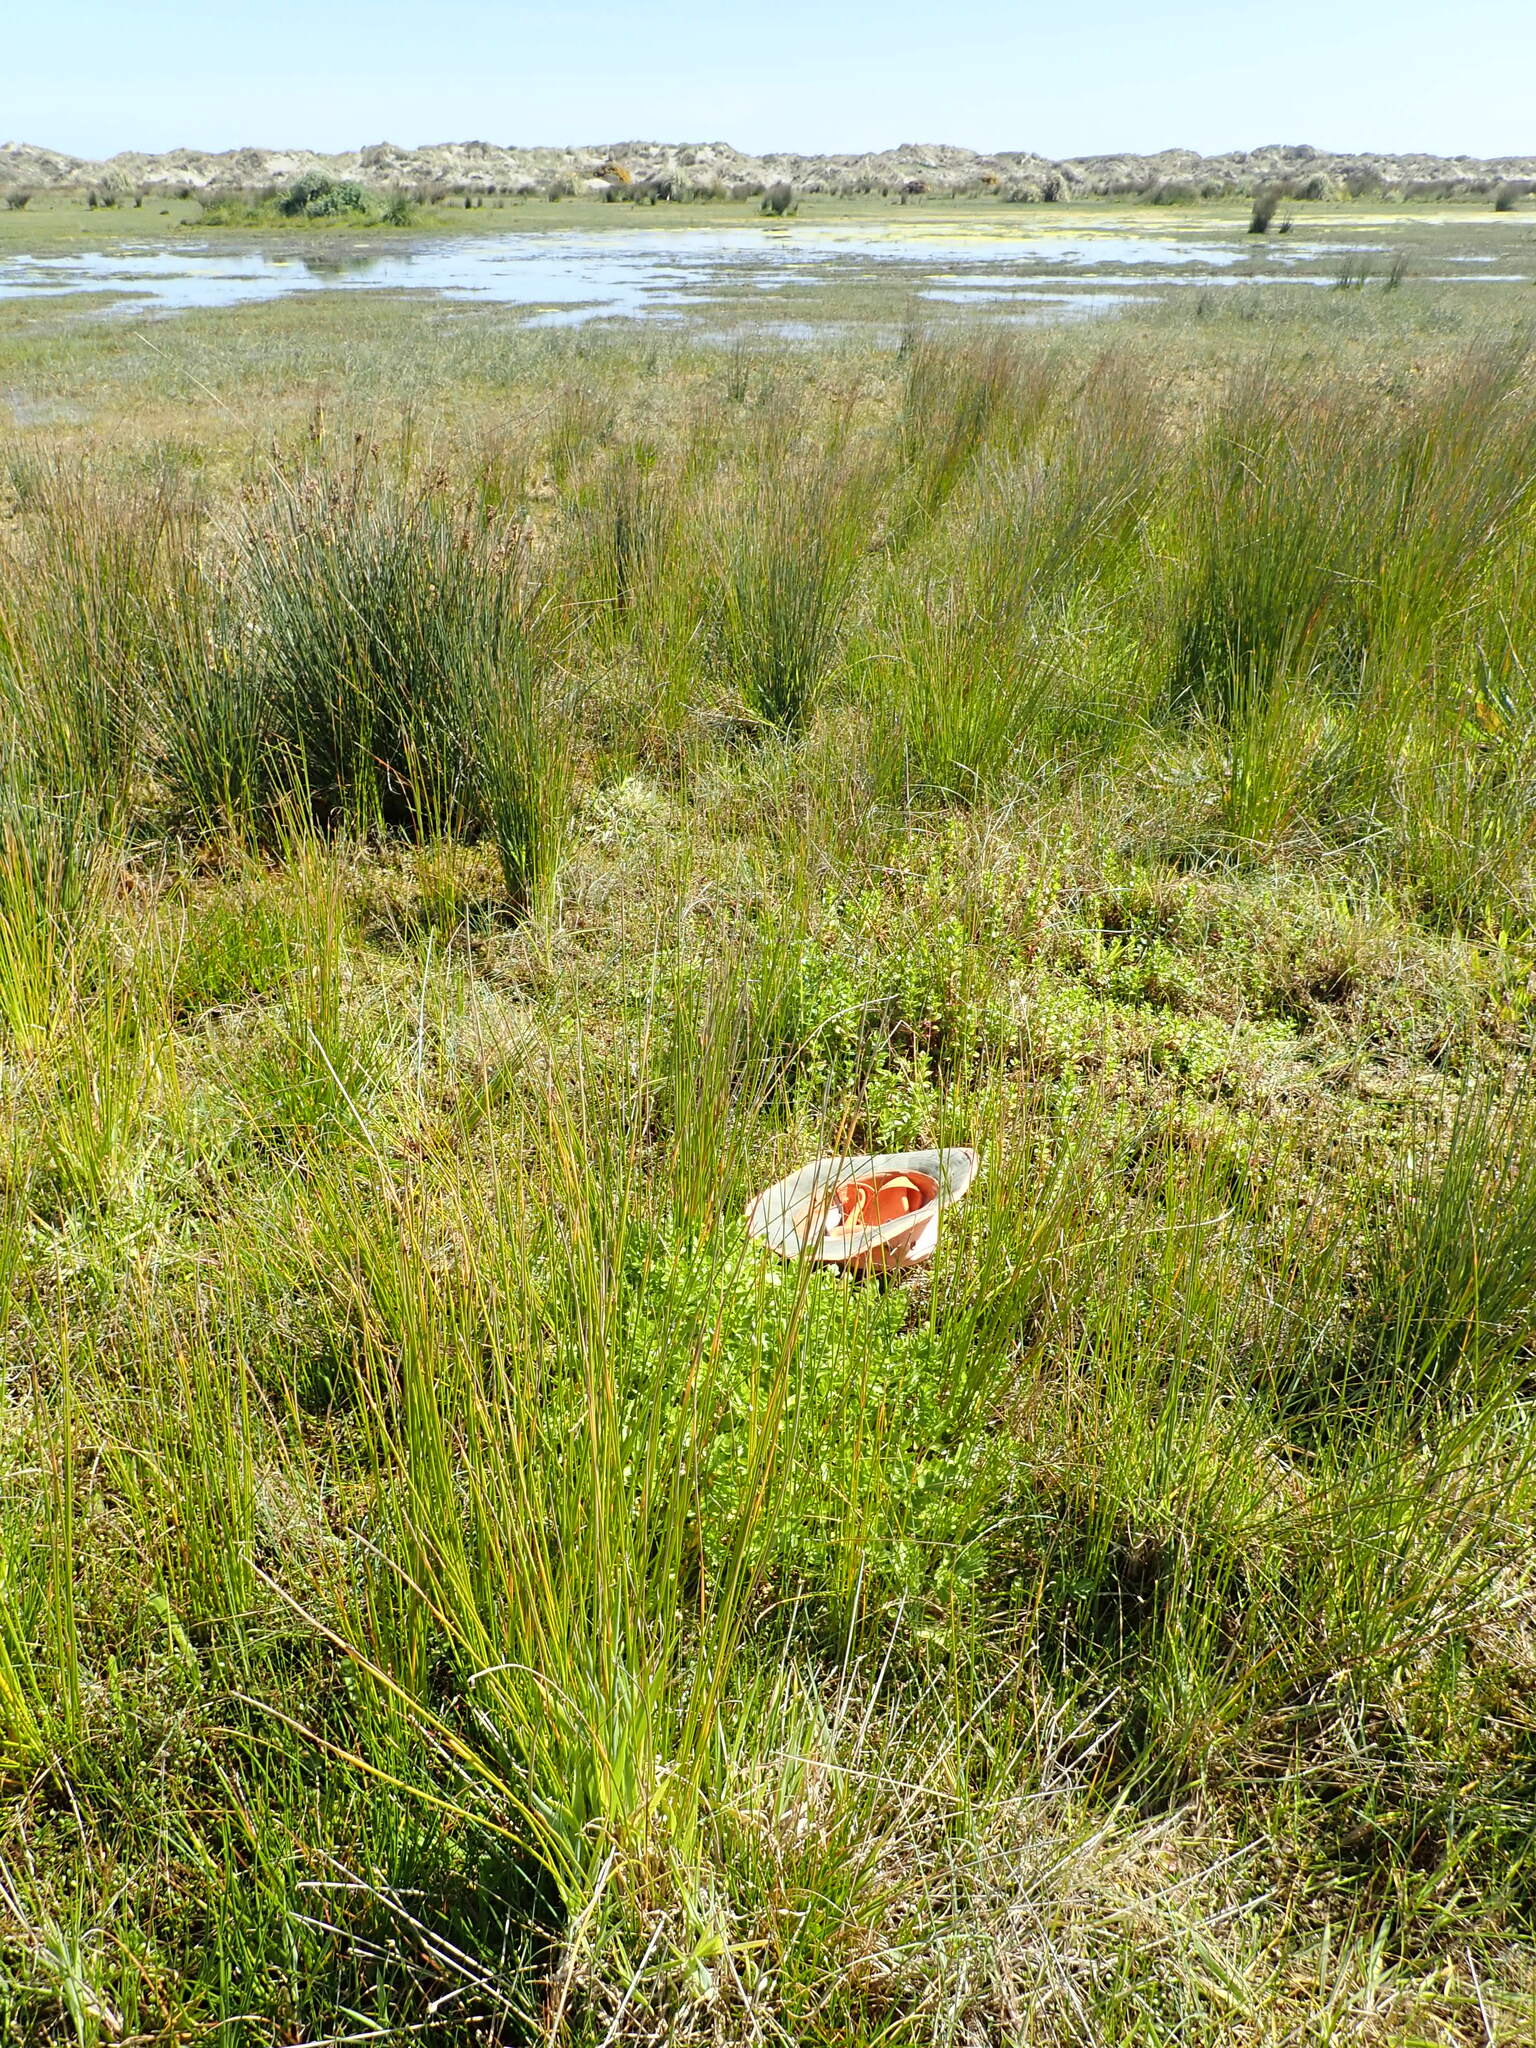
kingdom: Plantae
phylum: Tracheophyta
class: Magnoliopsida
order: Apiales
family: Apiaceae
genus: Helosciadium
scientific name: Helosciadium nodiflorum
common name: Fool's-watercress
